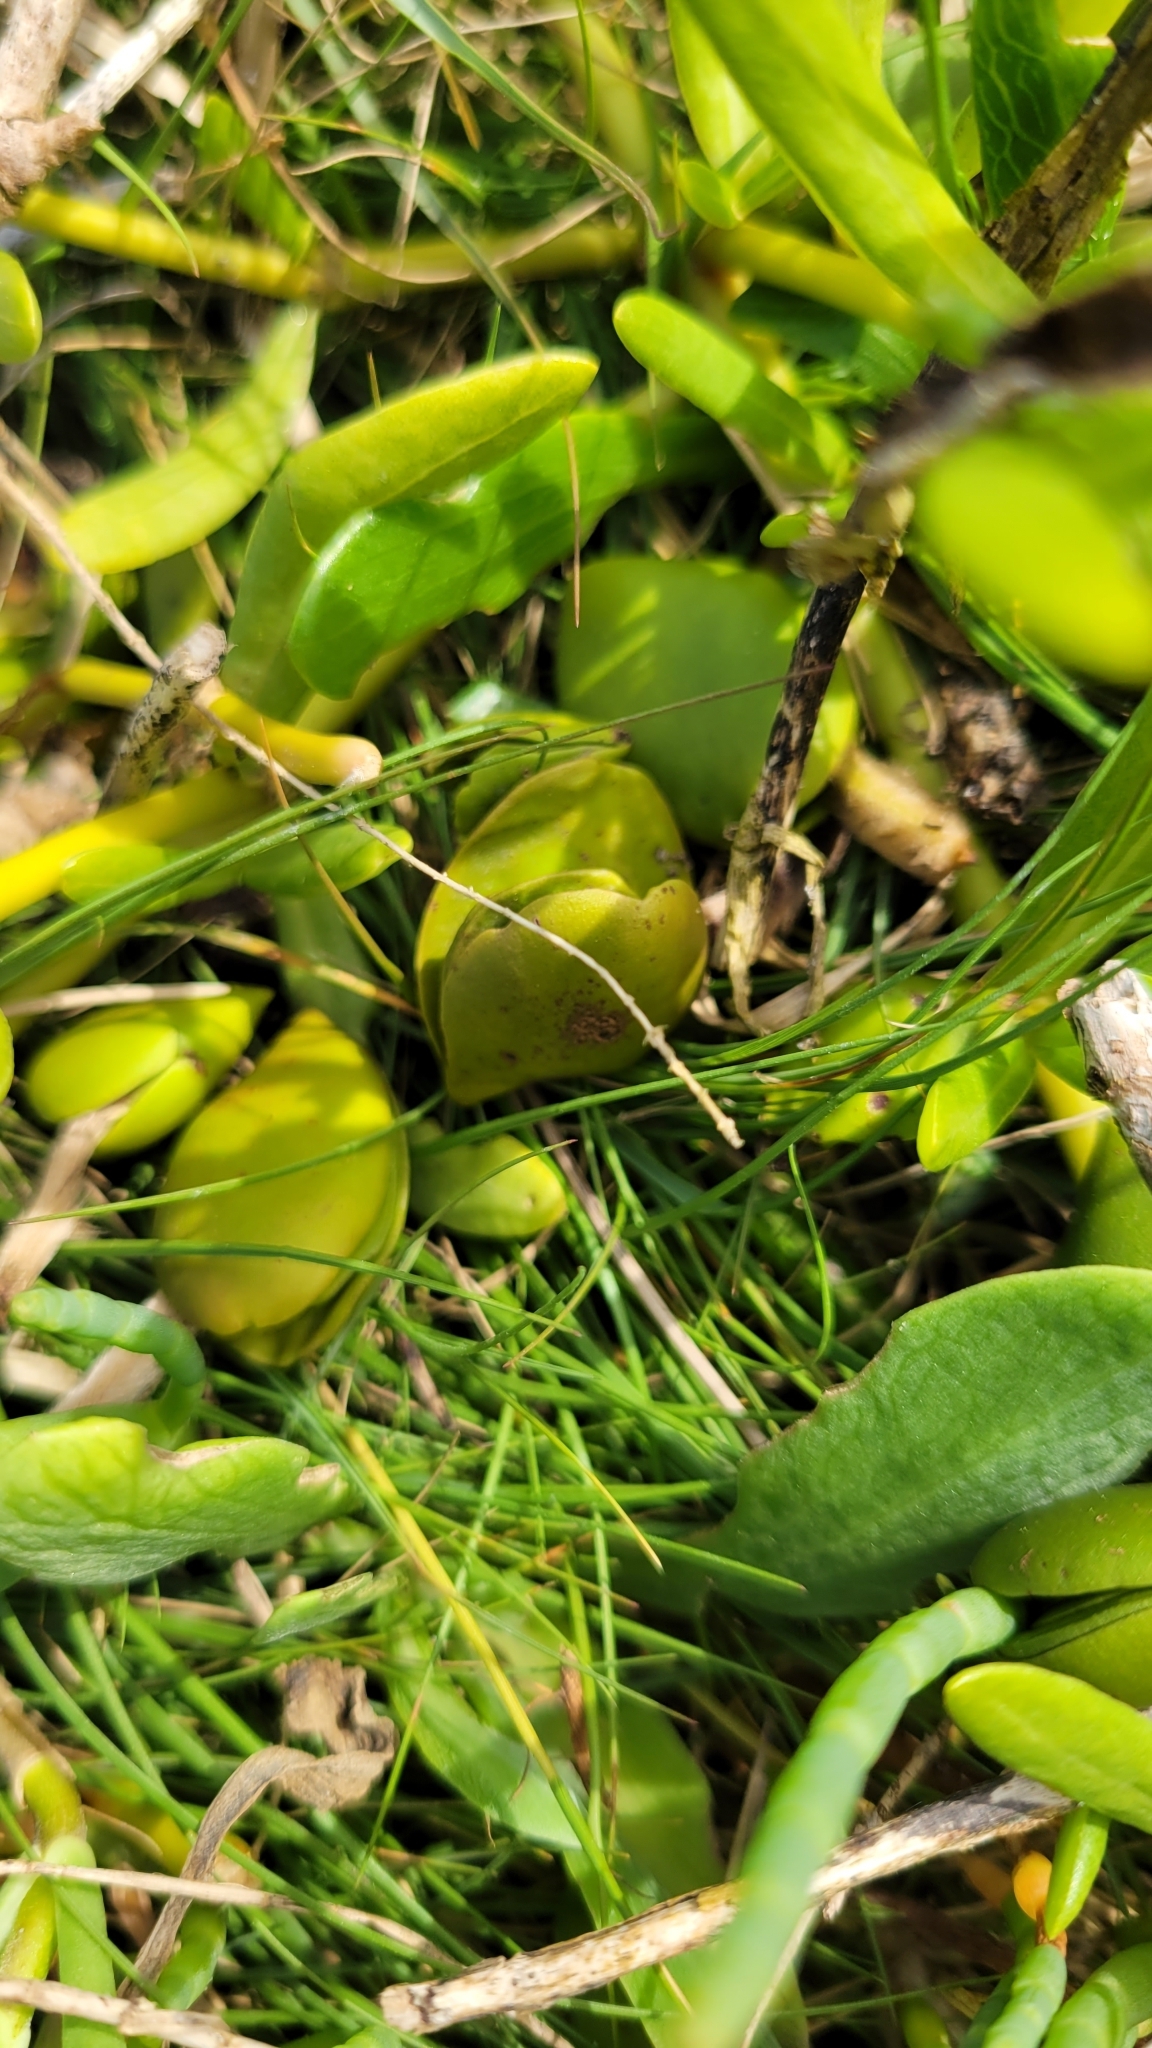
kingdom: Plantae
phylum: Tracheophyta
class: Magnoliopsida
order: Lamiales
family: Acanthaceae
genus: Avicennia
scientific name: Avicennia germinans
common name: Black mangrove
